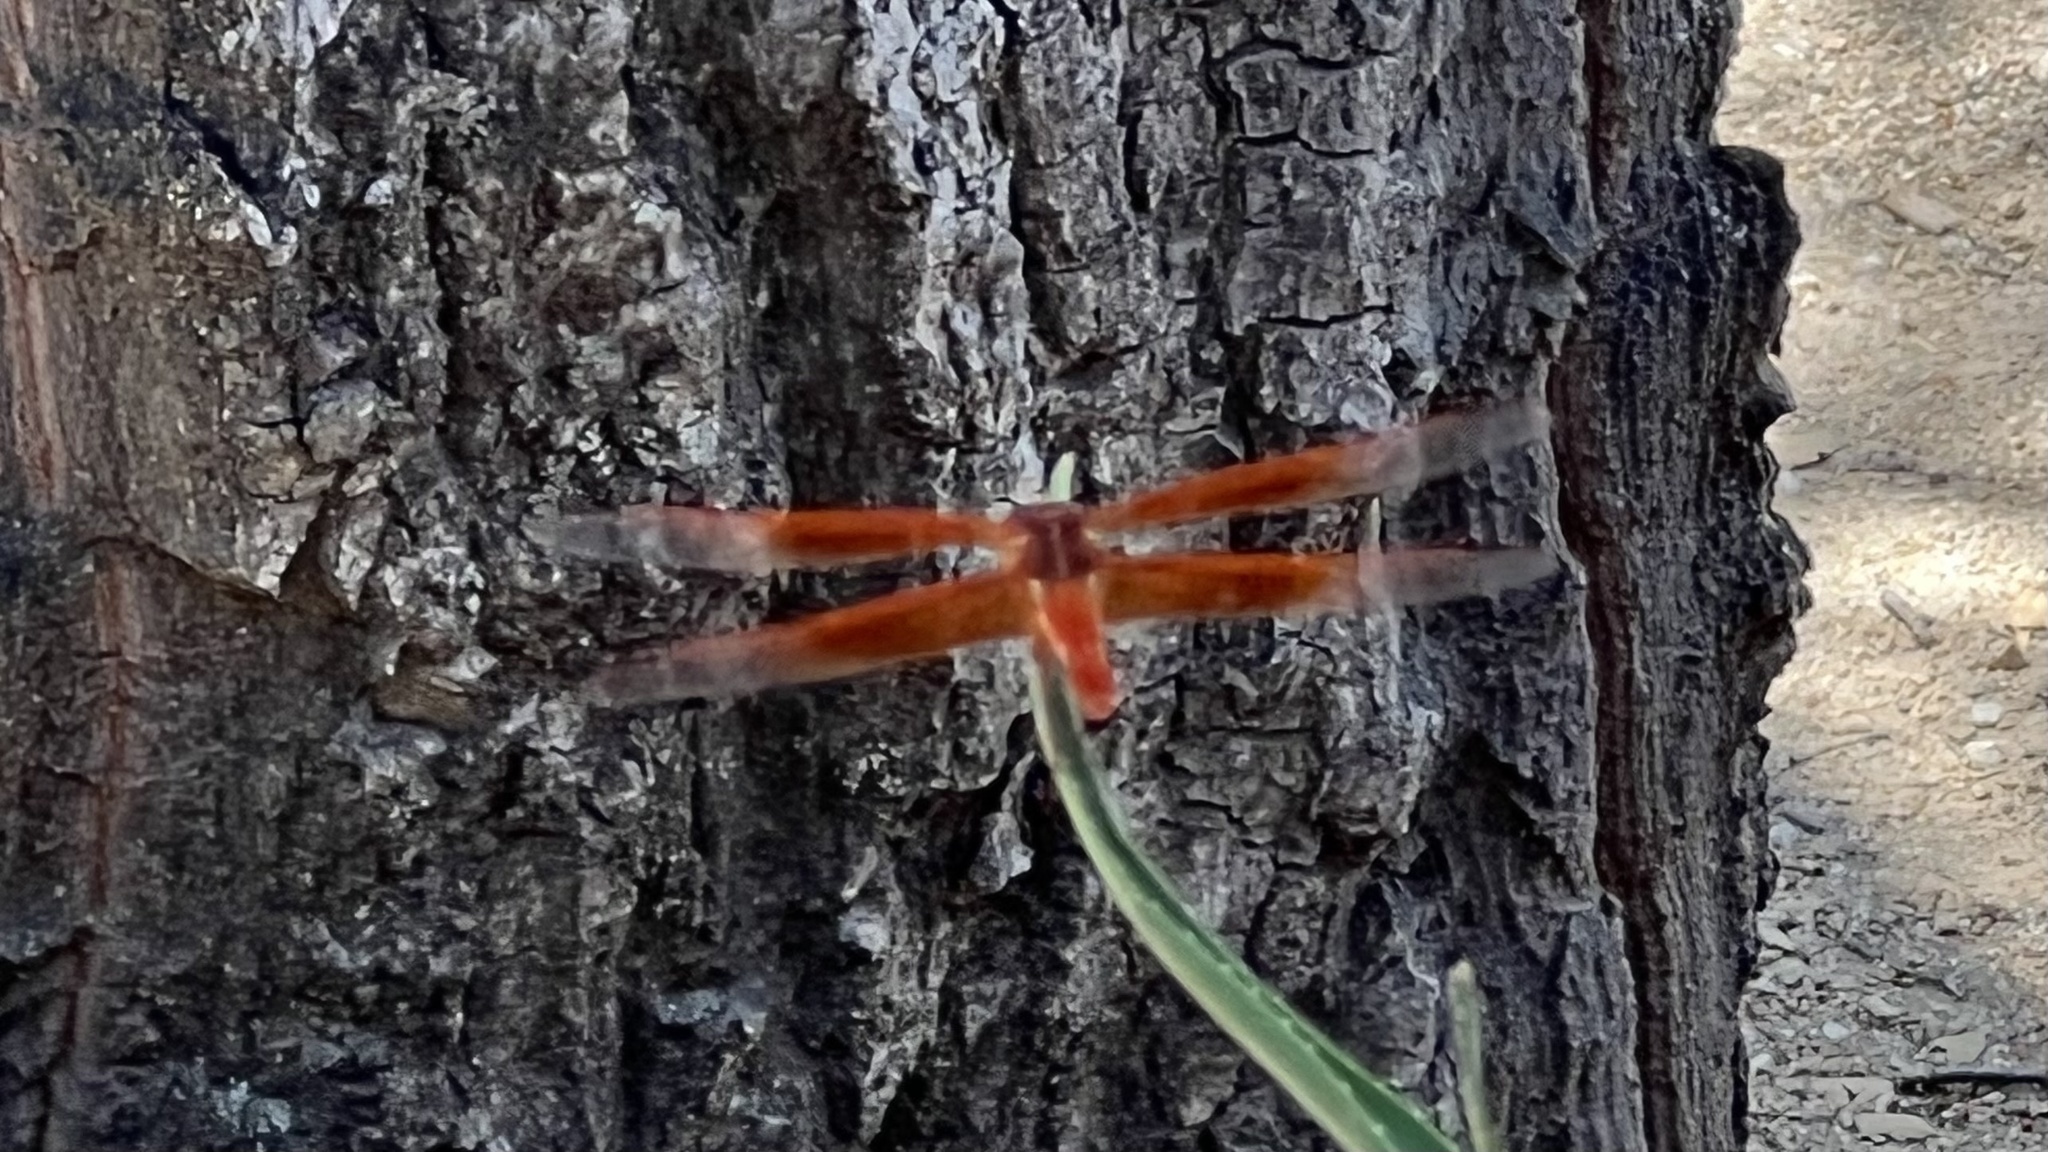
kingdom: Animalia
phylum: Arthropoda
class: Insecta
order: Odonata
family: Libellulidae
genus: Libellula
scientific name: Libellula saturata
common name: Flame skimmer
